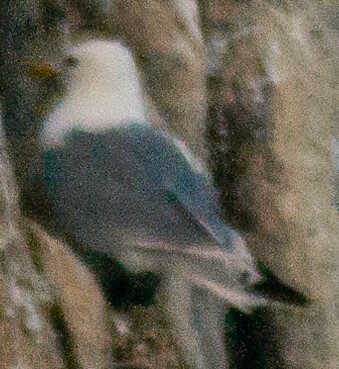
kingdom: Animalia
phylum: Chordata
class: Aves
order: Charadriiformes
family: Laridae
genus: Rissa
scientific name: Rissa tridactyla
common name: Black-legged kittiwake
